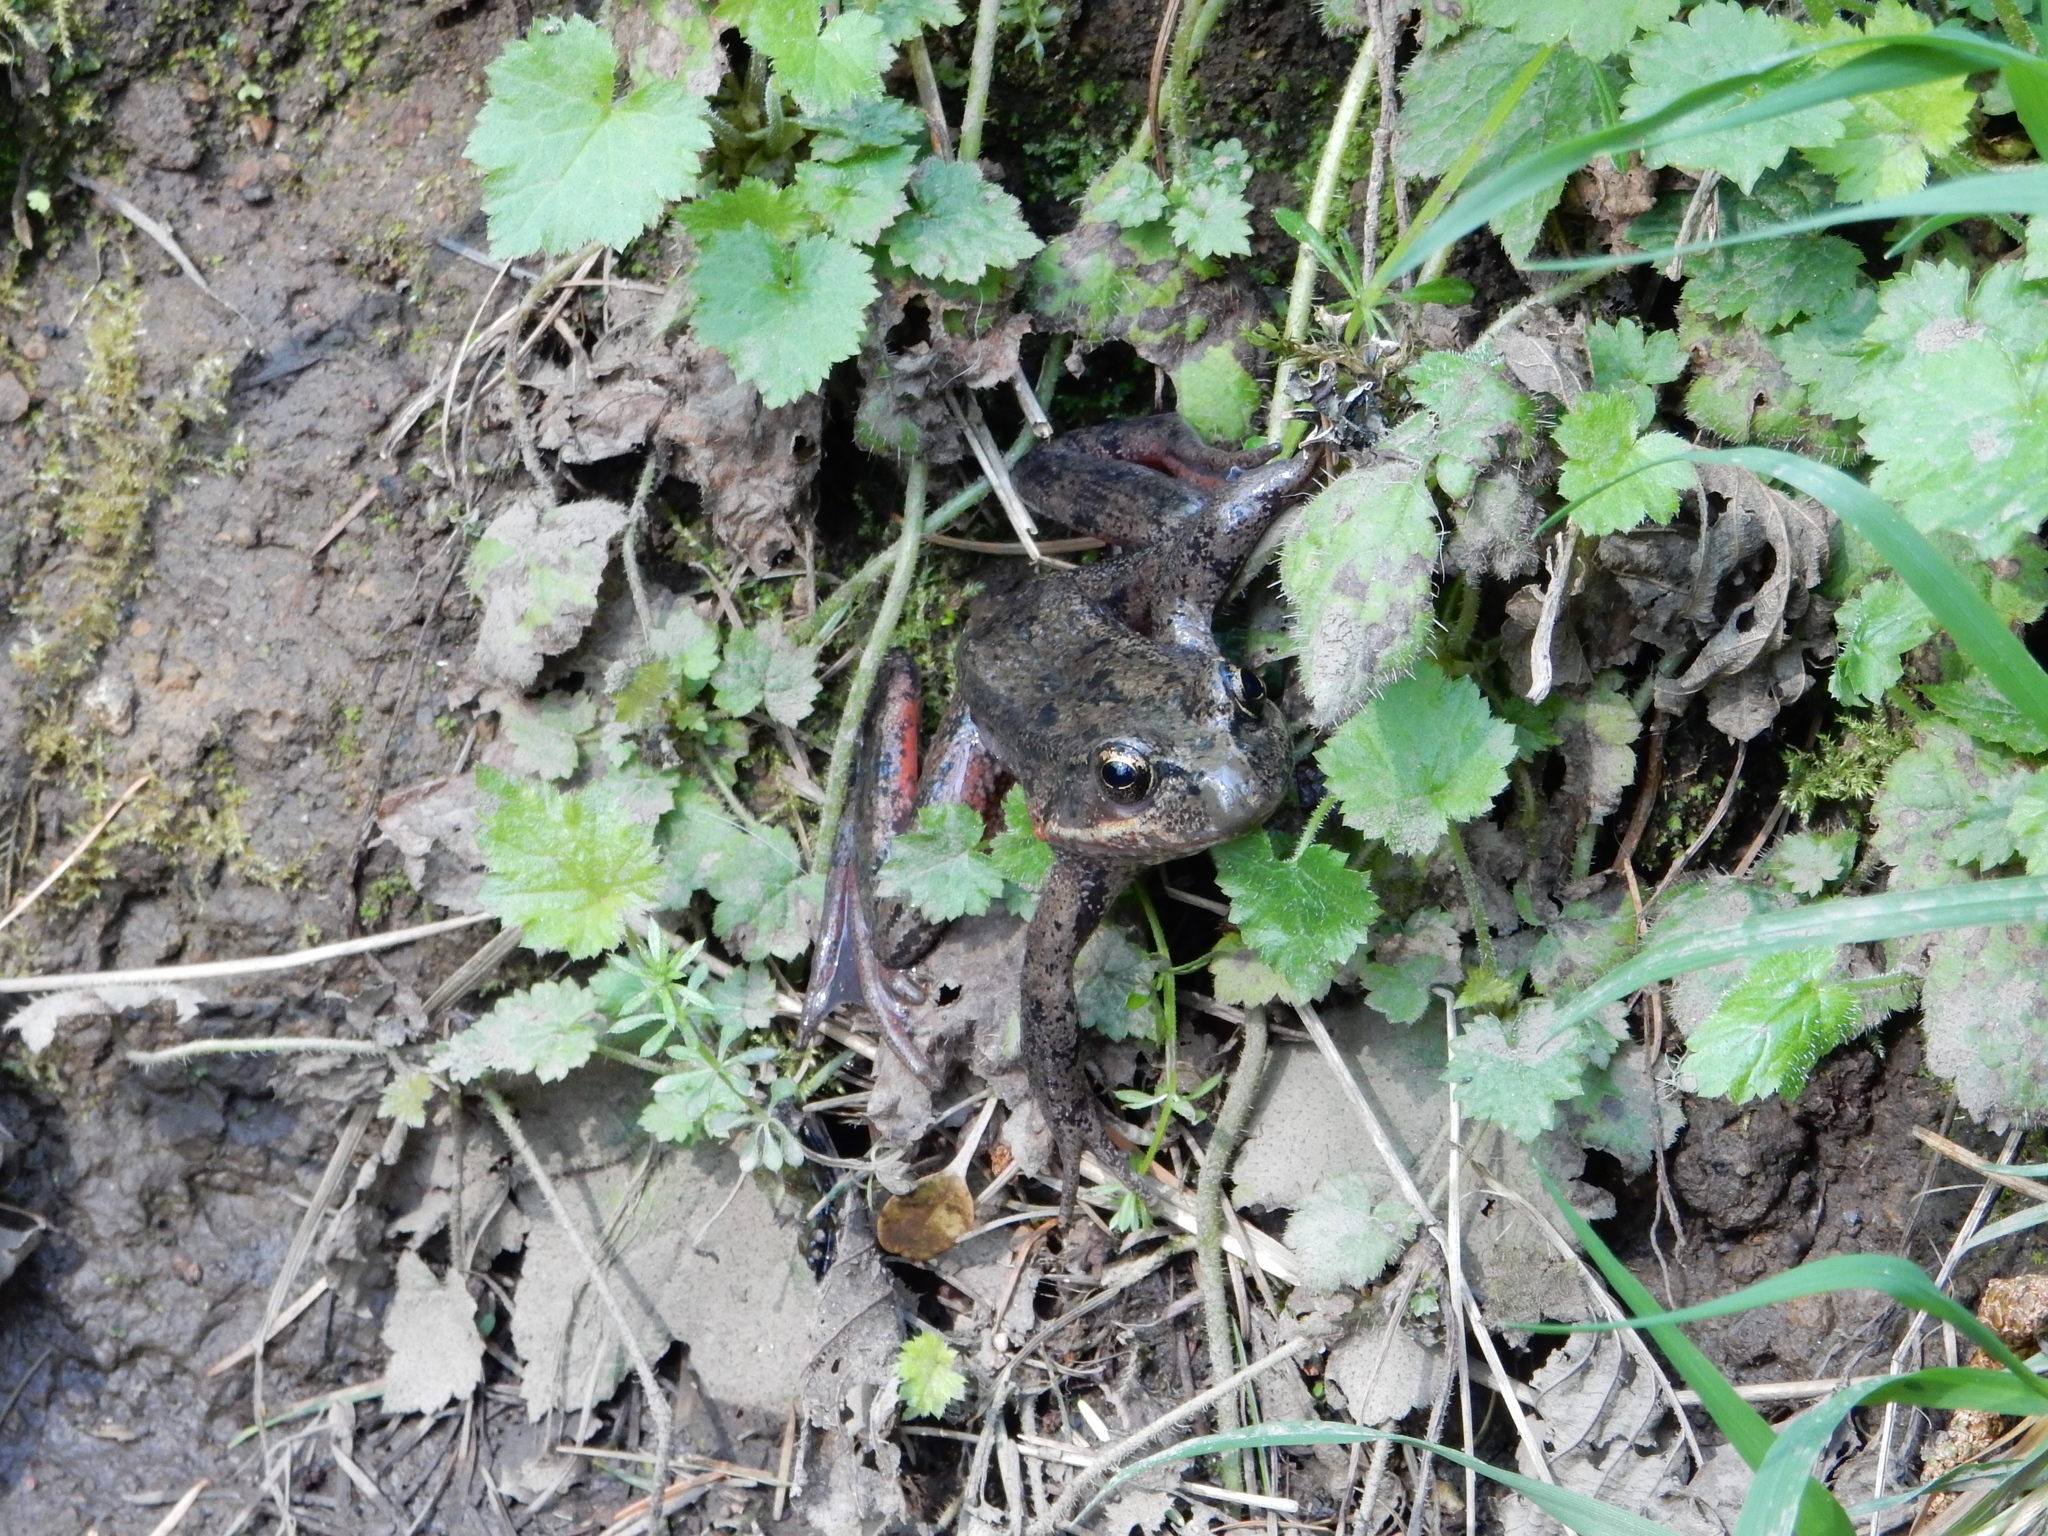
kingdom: Animalia
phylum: Chordata
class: Amphibia
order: Anura
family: Ranidae
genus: Rana
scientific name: Rana aurora
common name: Red-legged frog
